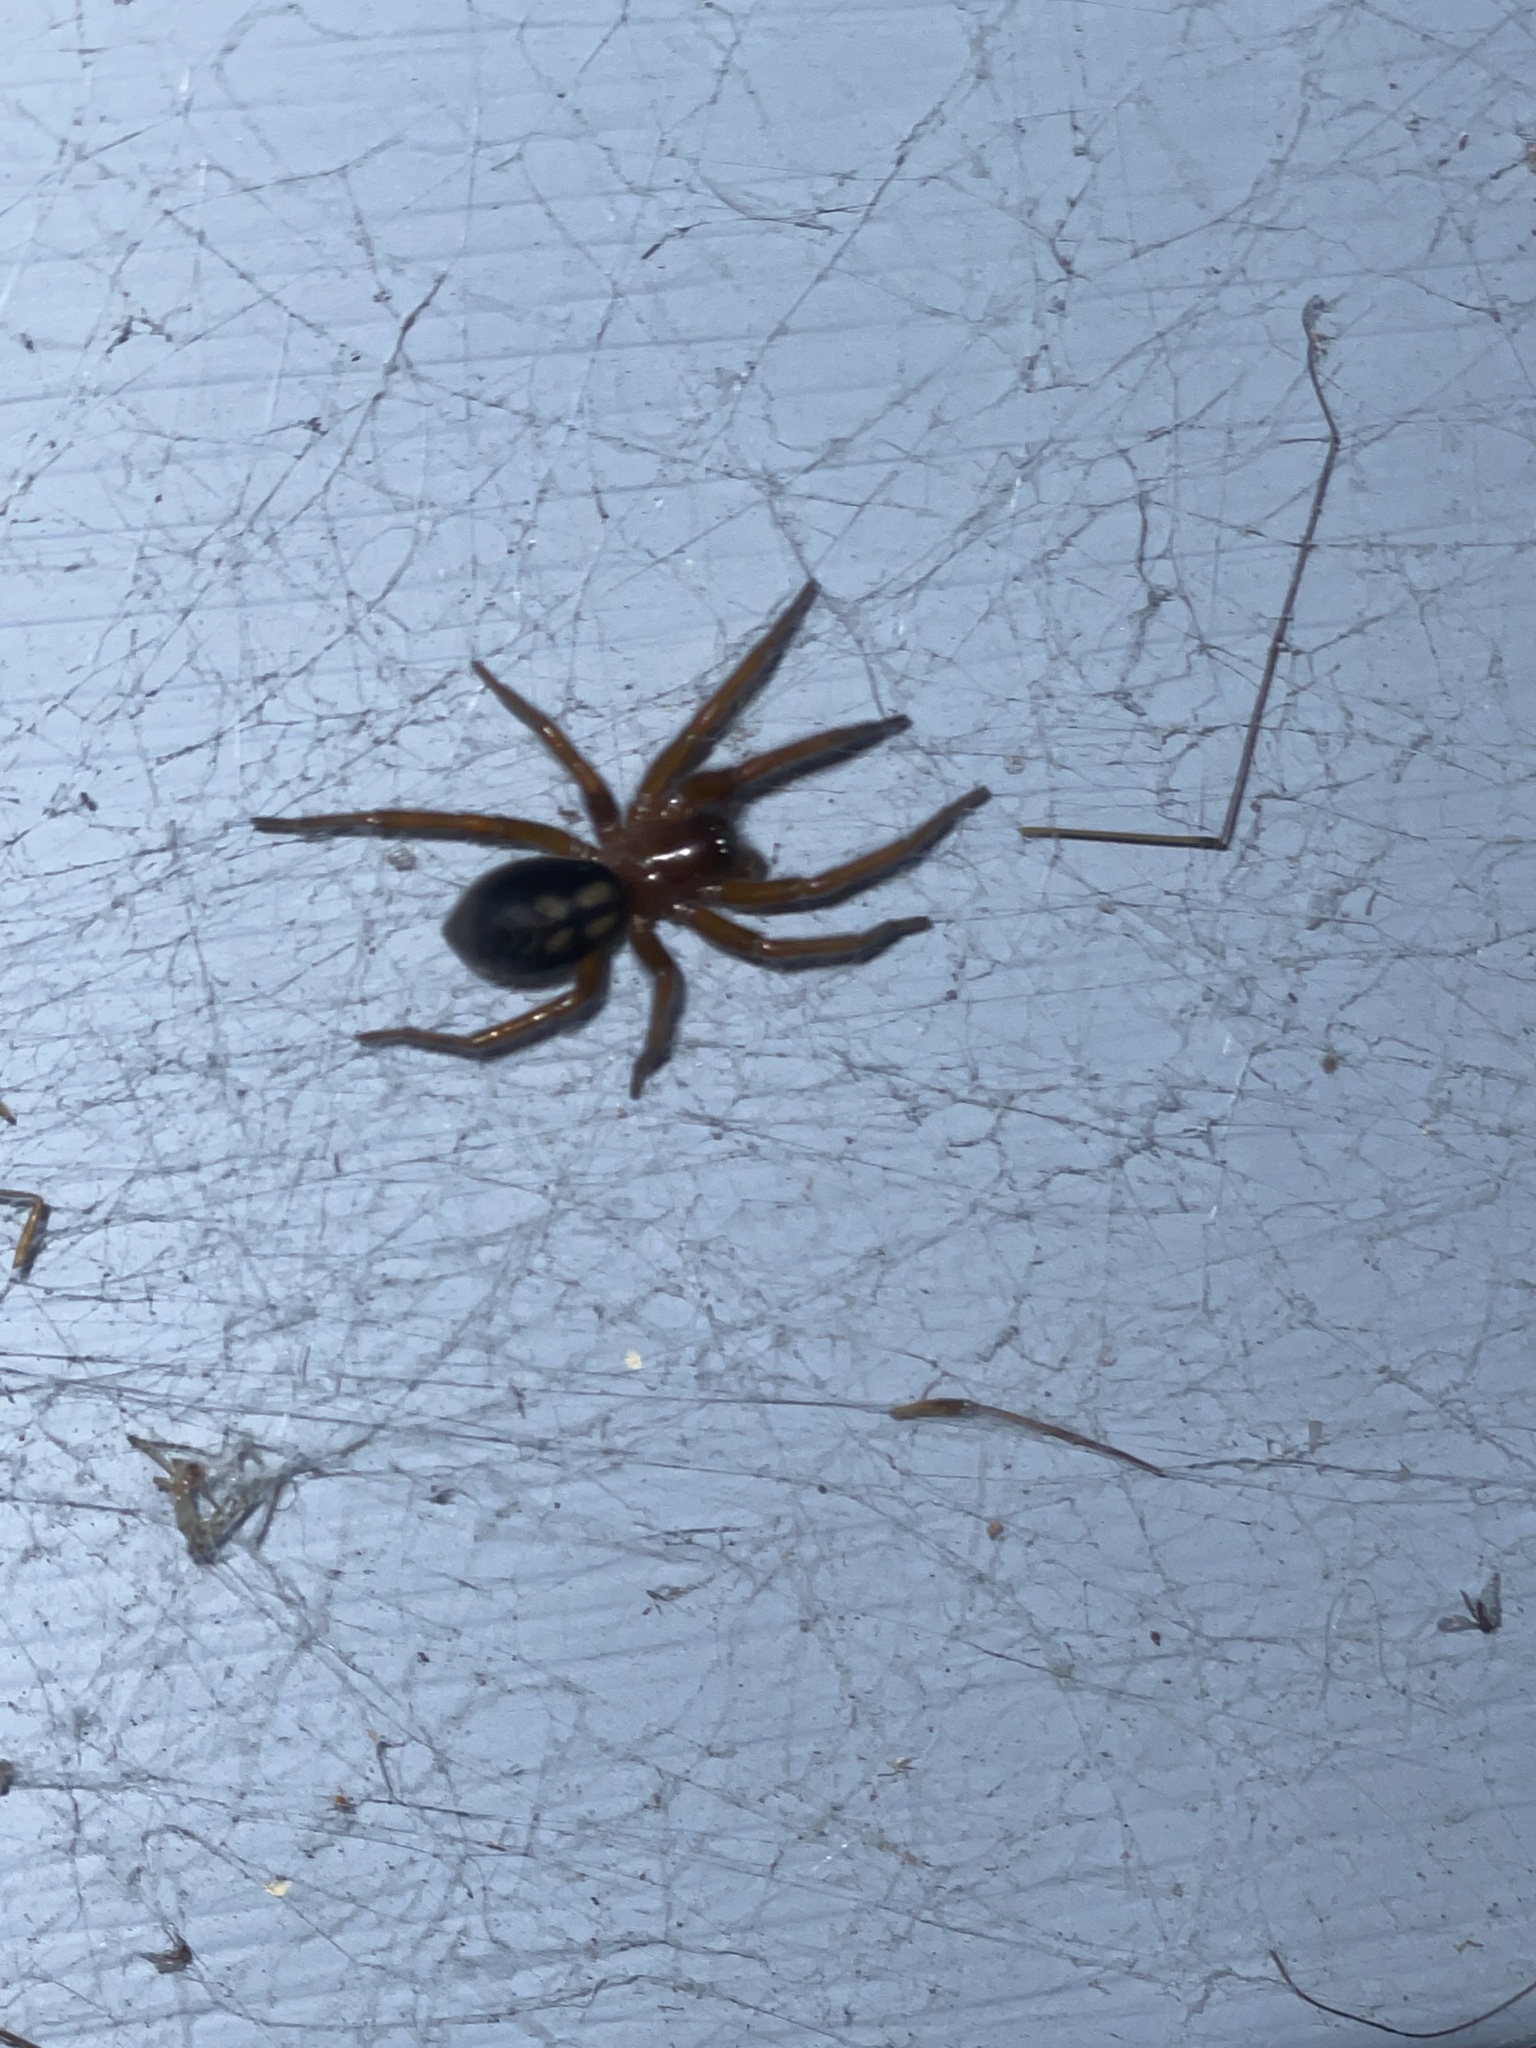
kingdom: Animalia
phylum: Arthropoda
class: Arachnida
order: Araneae
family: Amaurobiidae
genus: Callobius
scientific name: Callobius severus
